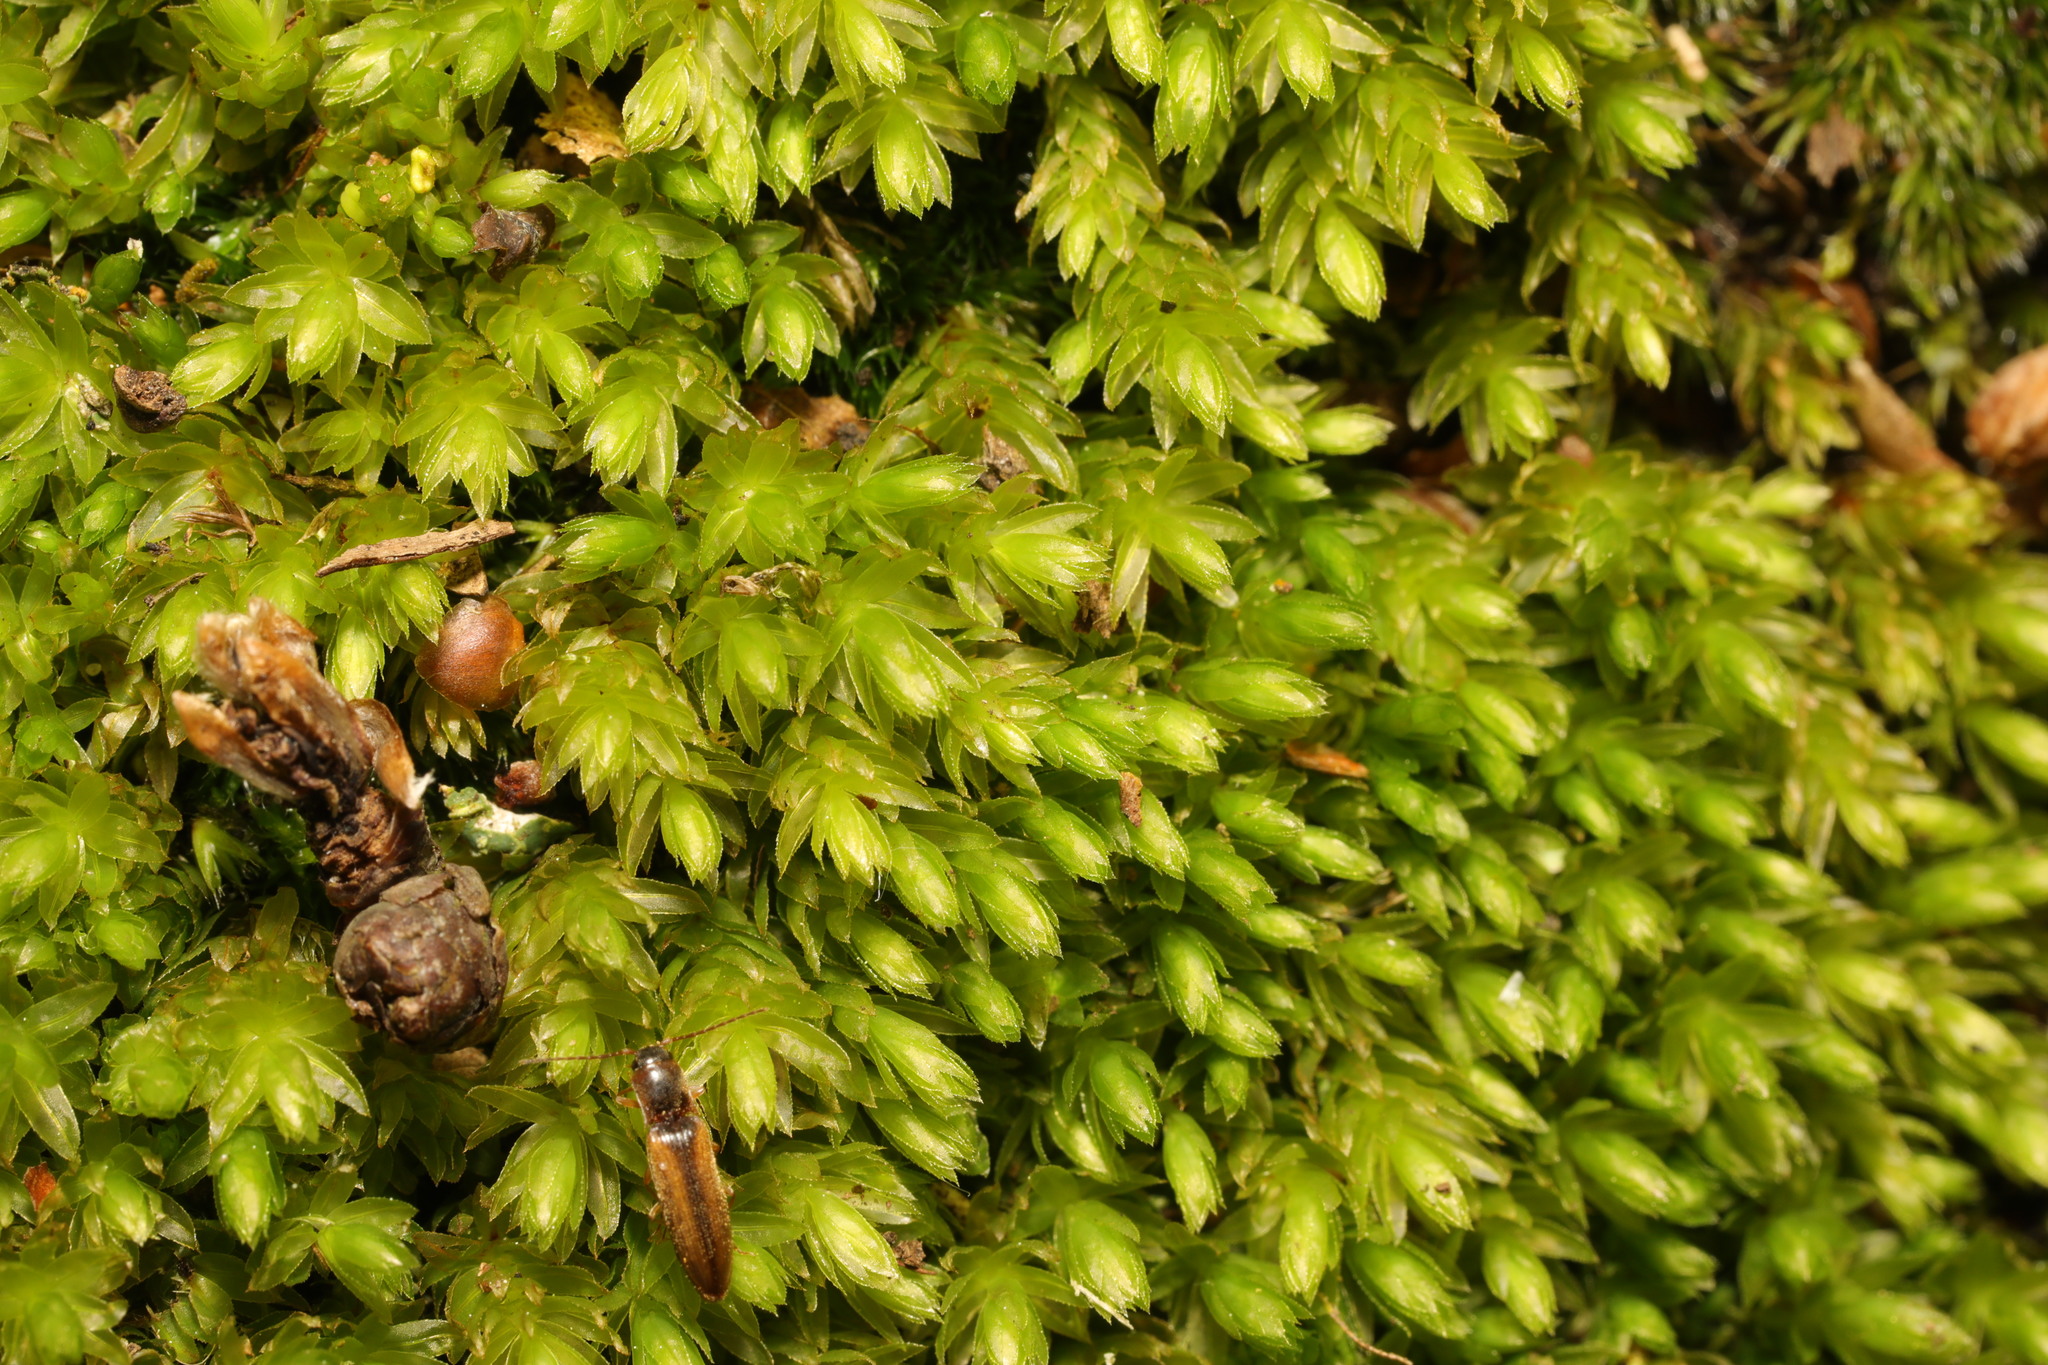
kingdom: Plantae
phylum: Bryophyta
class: Bryopsida
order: Bryales
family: Mniaceae
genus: Mnium
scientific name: Mnium hornum
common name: Swan's-neck leafy moss
